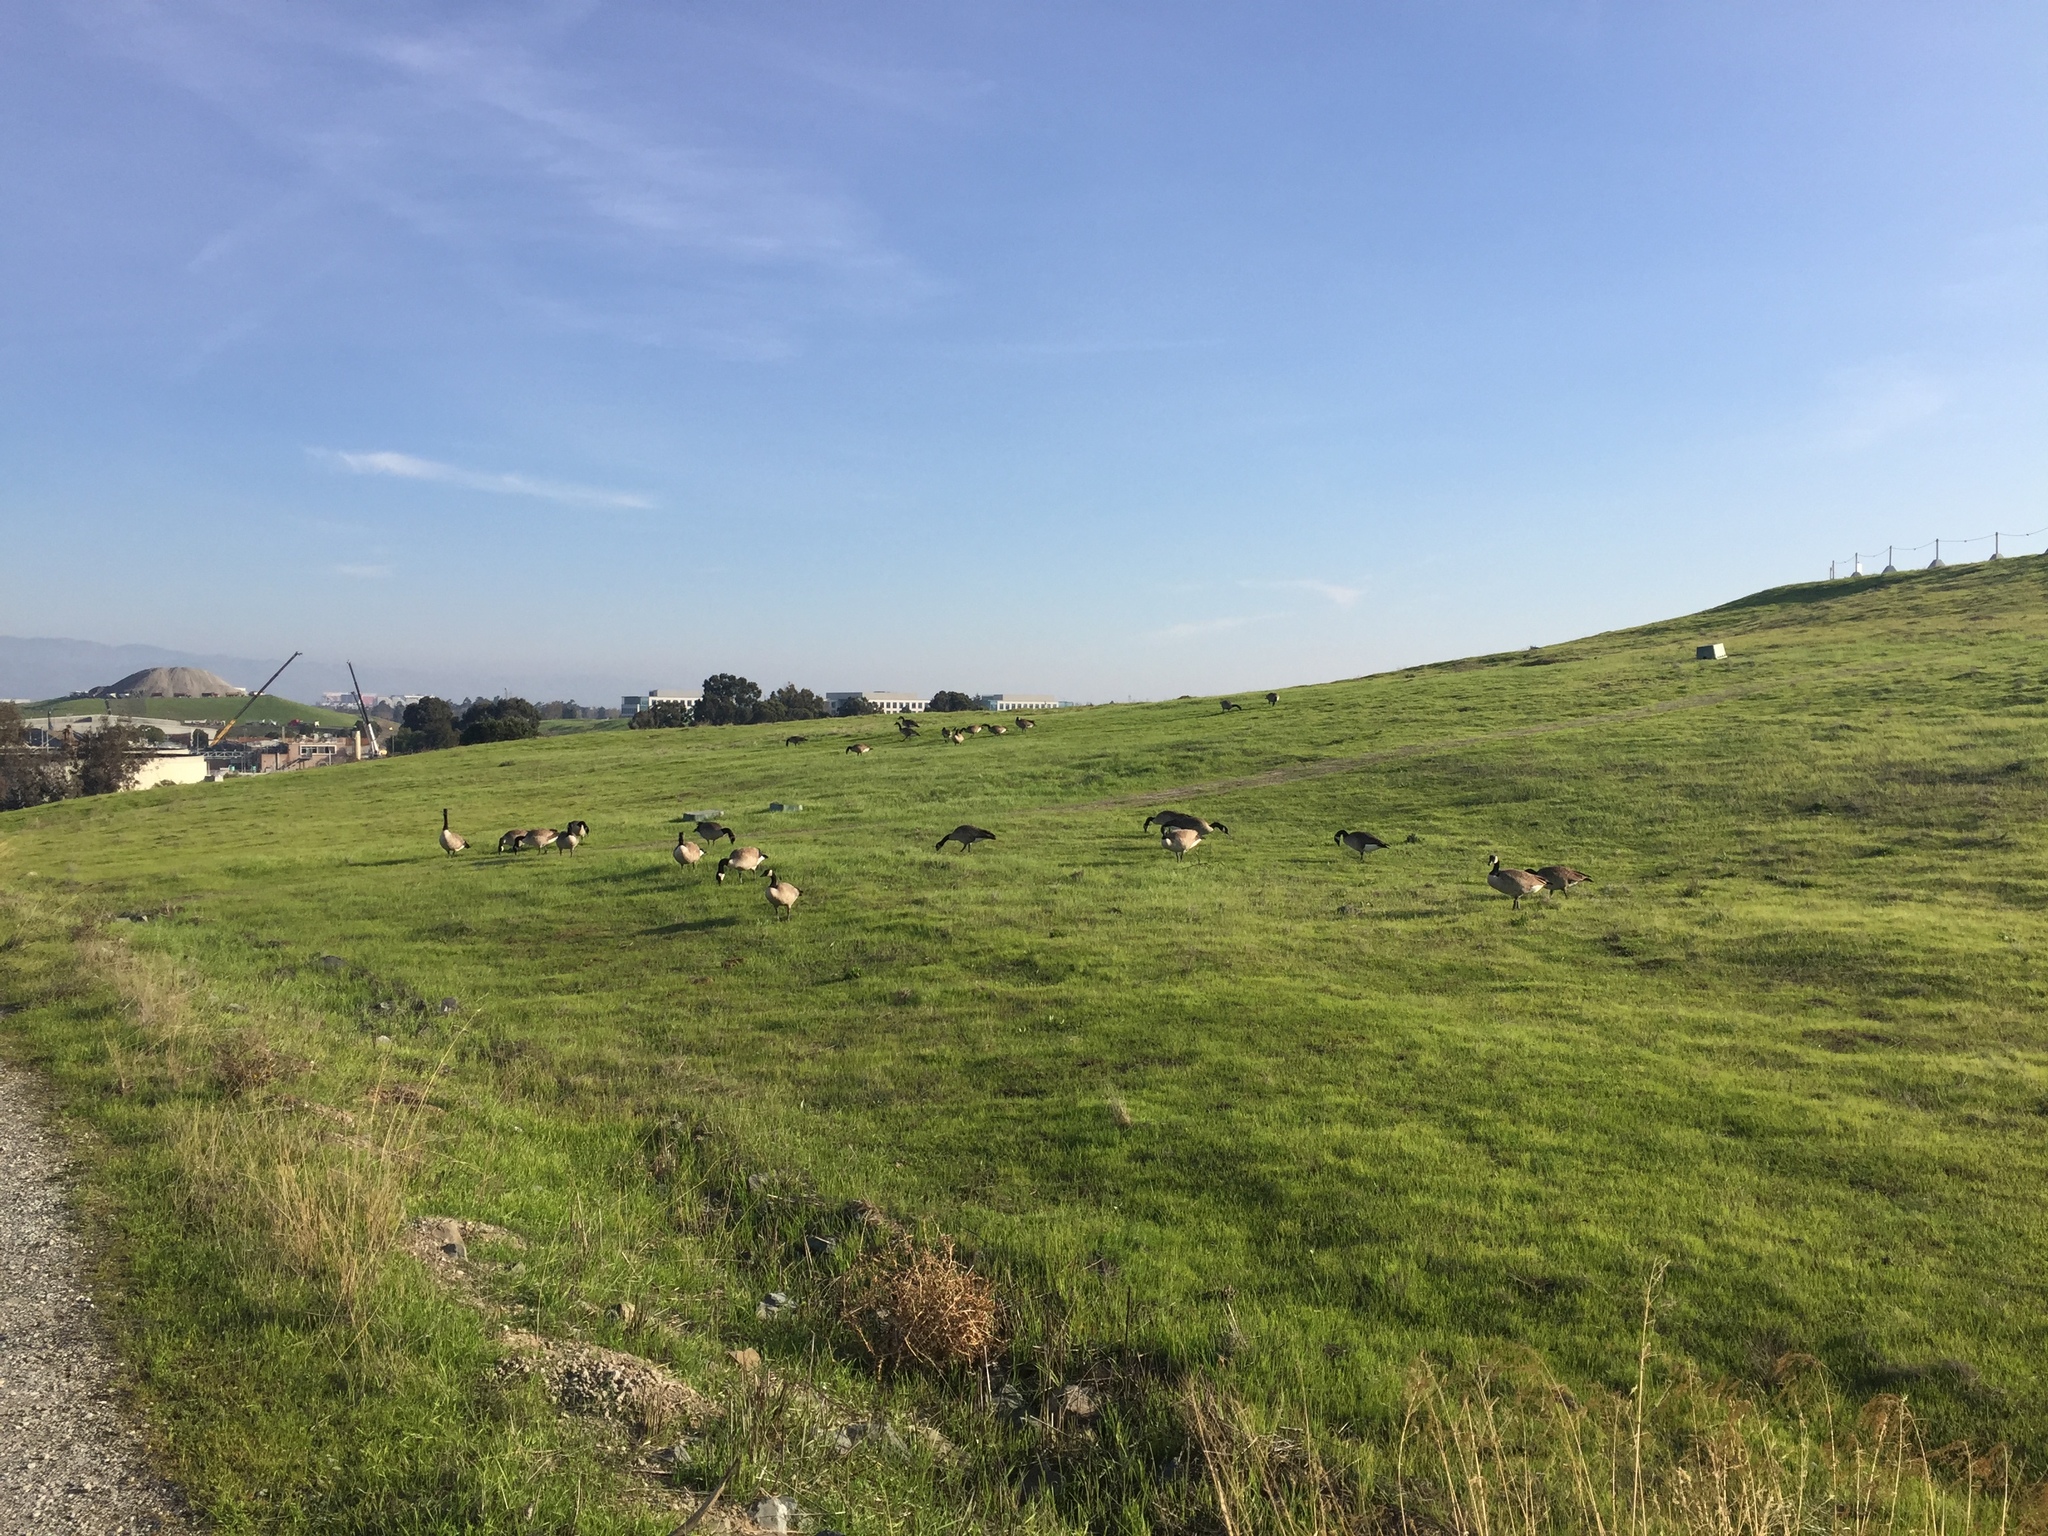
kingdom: Animalia
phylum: Chordata
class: Aves
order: Anseriformes
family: Anatidae
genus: Branta
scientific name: Branta canadensis
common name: Canada goose
